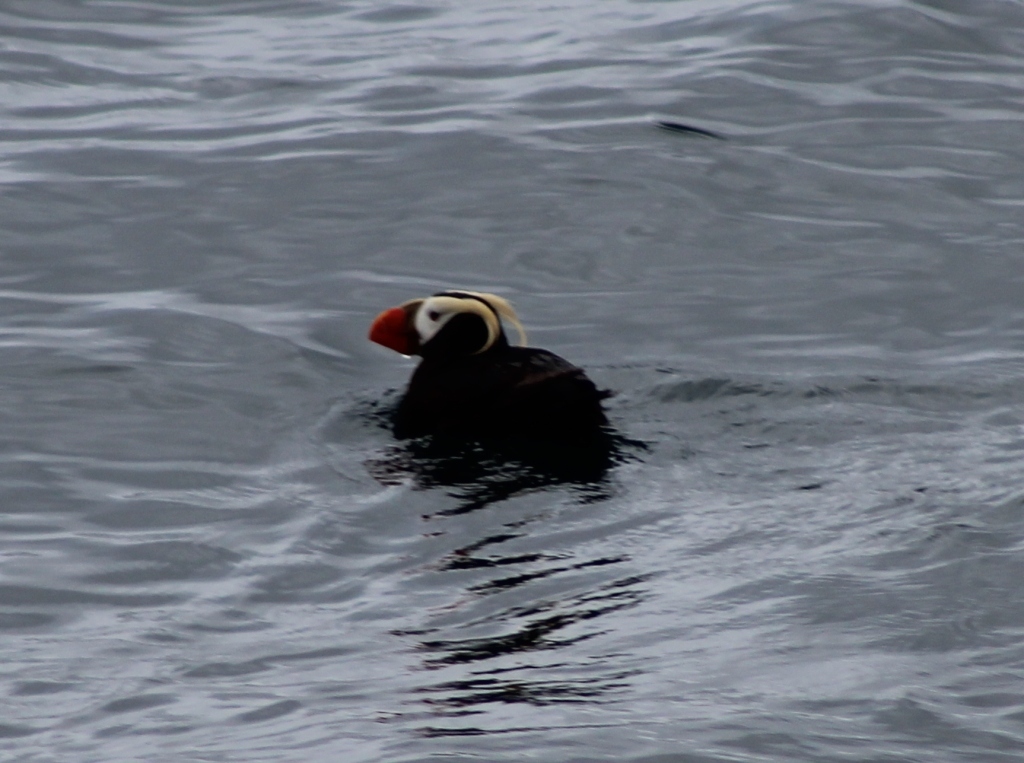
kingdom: Animalia
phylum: Chordata
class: Aves
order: Charadriiformes
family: Alcidae
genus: Fratercula
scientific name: Fratercula cirrhata
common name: Tufted puffin
